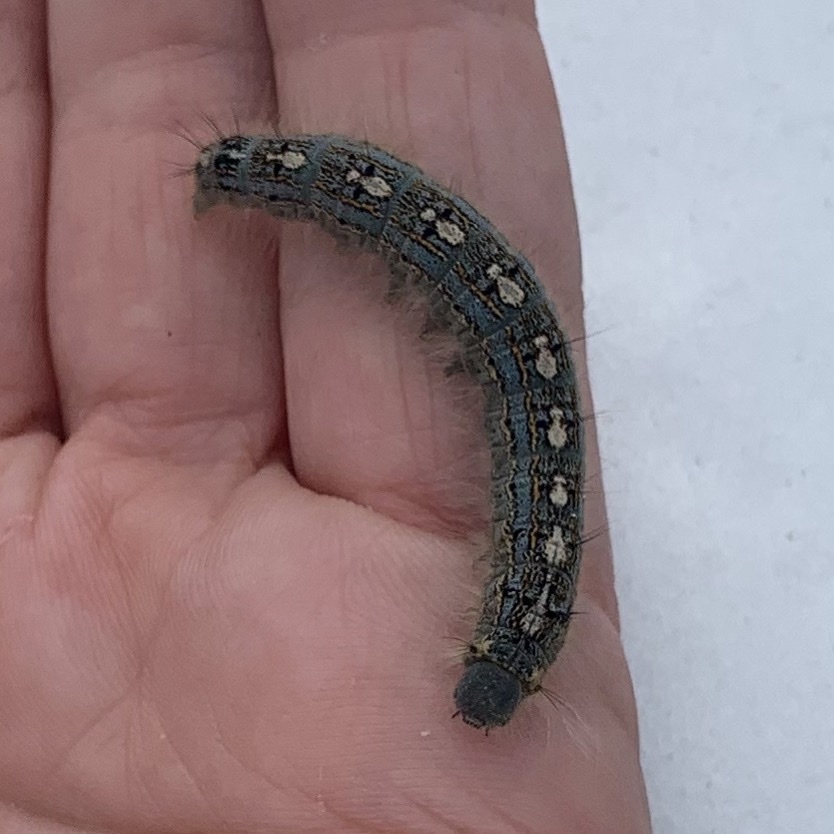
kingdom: Animalia
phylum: Arthropoda
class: Insecta
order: Lepidoptera
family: Lasiocampidae
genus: Malacosoma
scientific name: Malacosoma disstria
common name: Forest tent caterpillar
